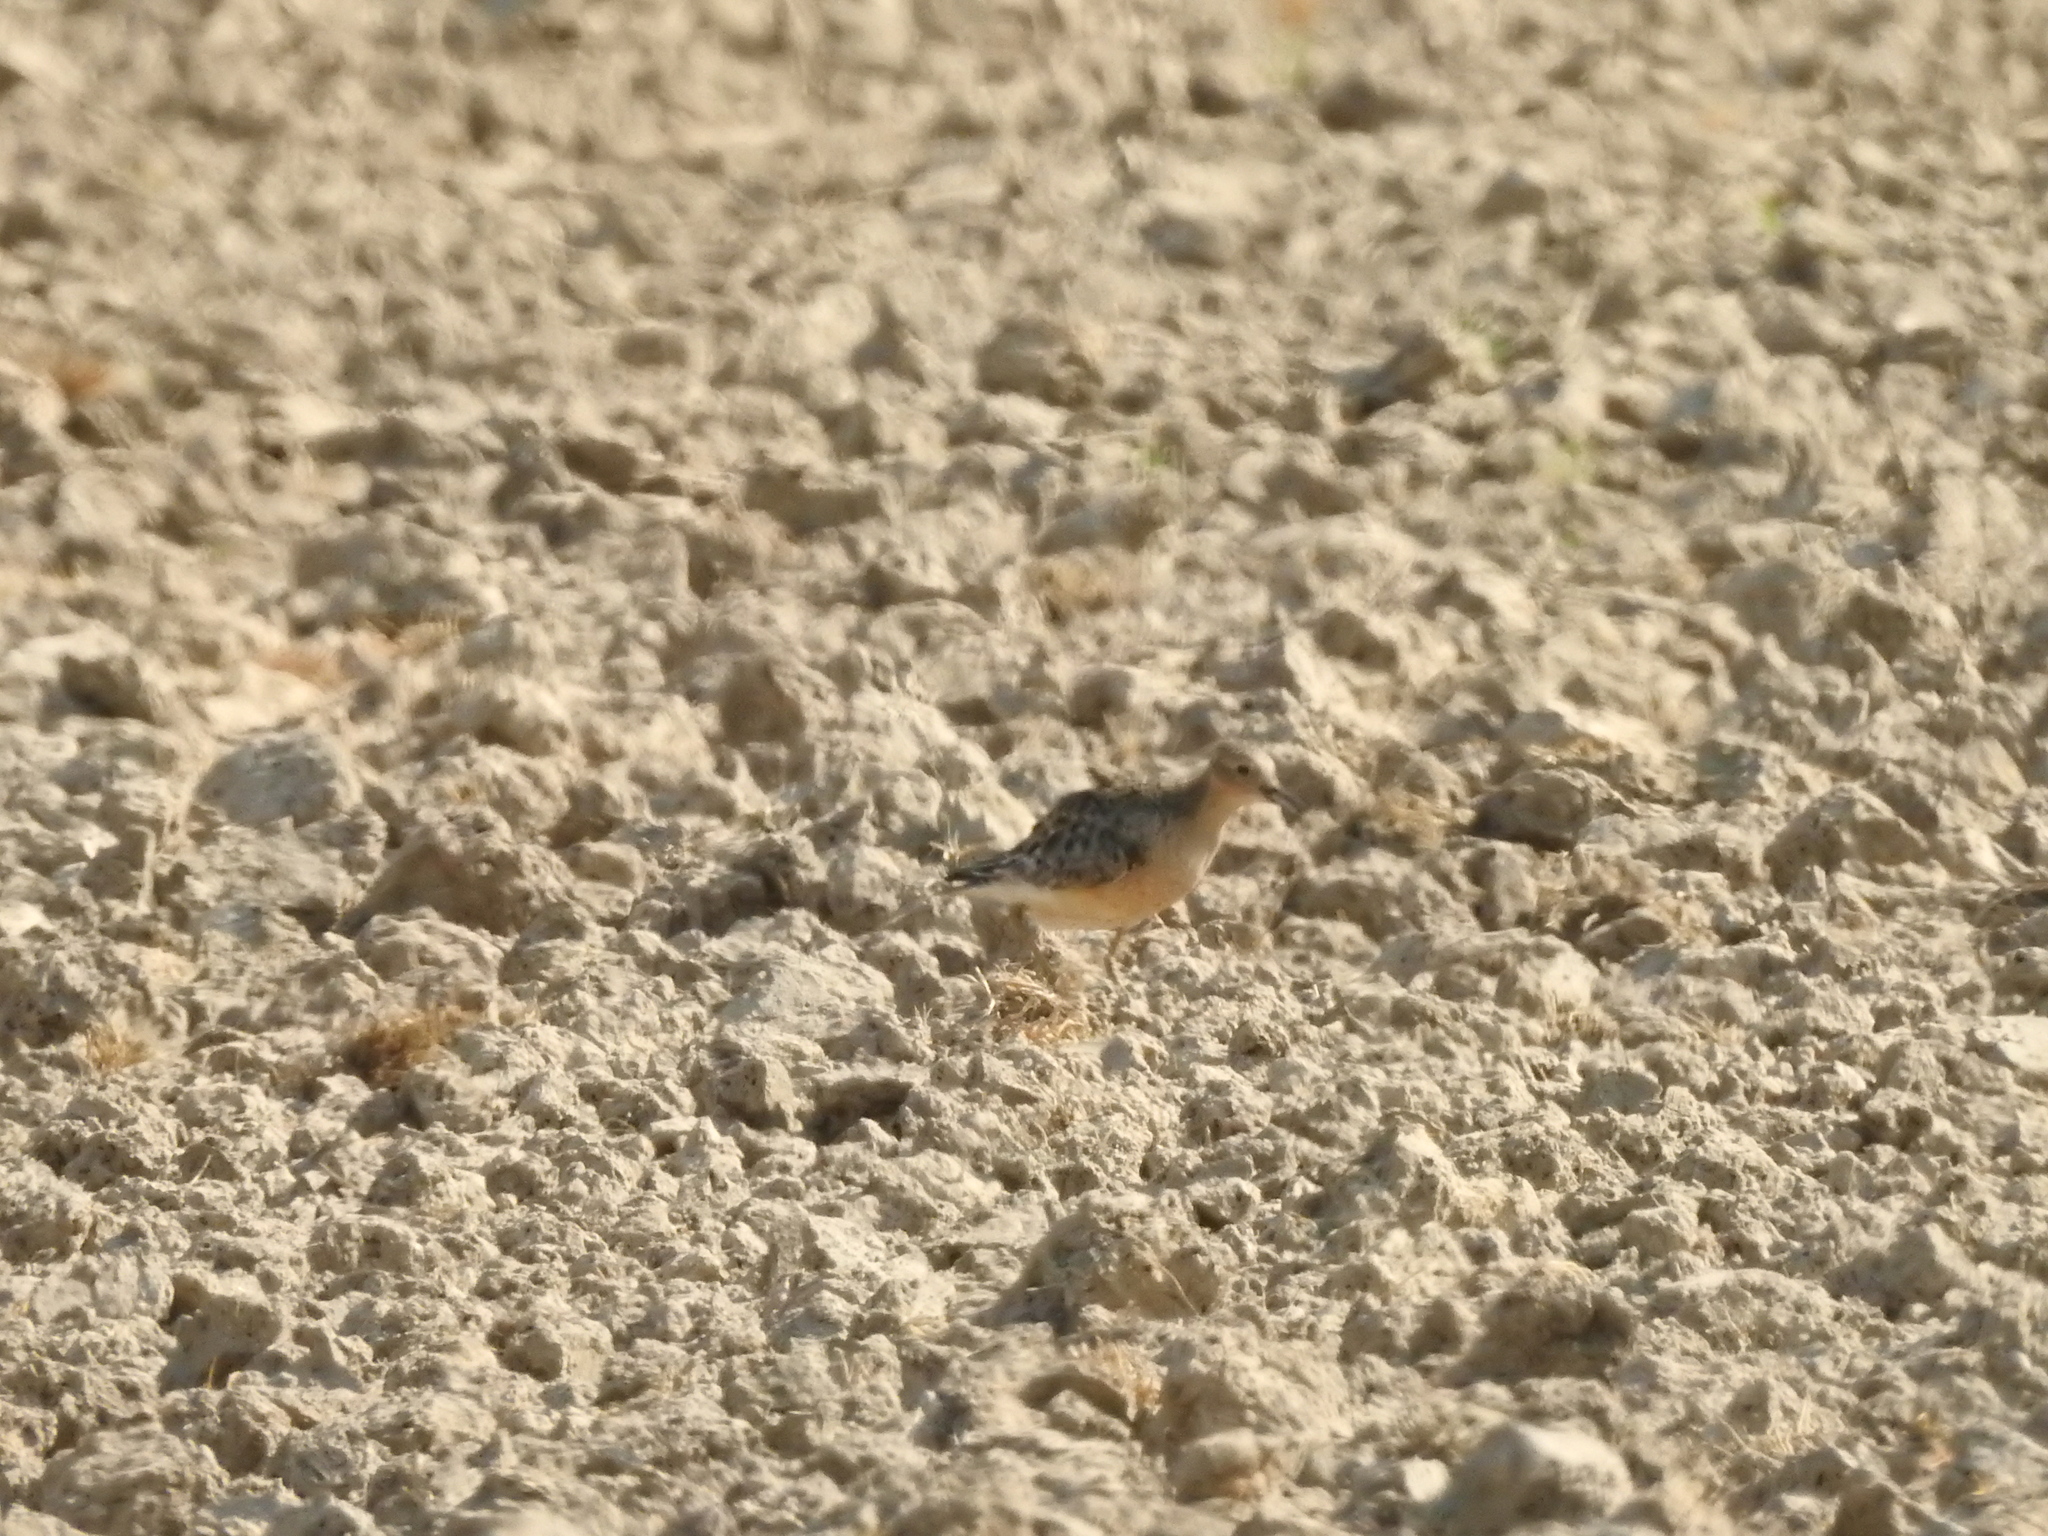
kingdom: Animalia
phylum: Chordata
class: Aves
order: Charadriiformes
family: Scolopacidae
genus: Calidris
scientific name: Calidris subruficollis
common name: Buff-breasted sandpiper
